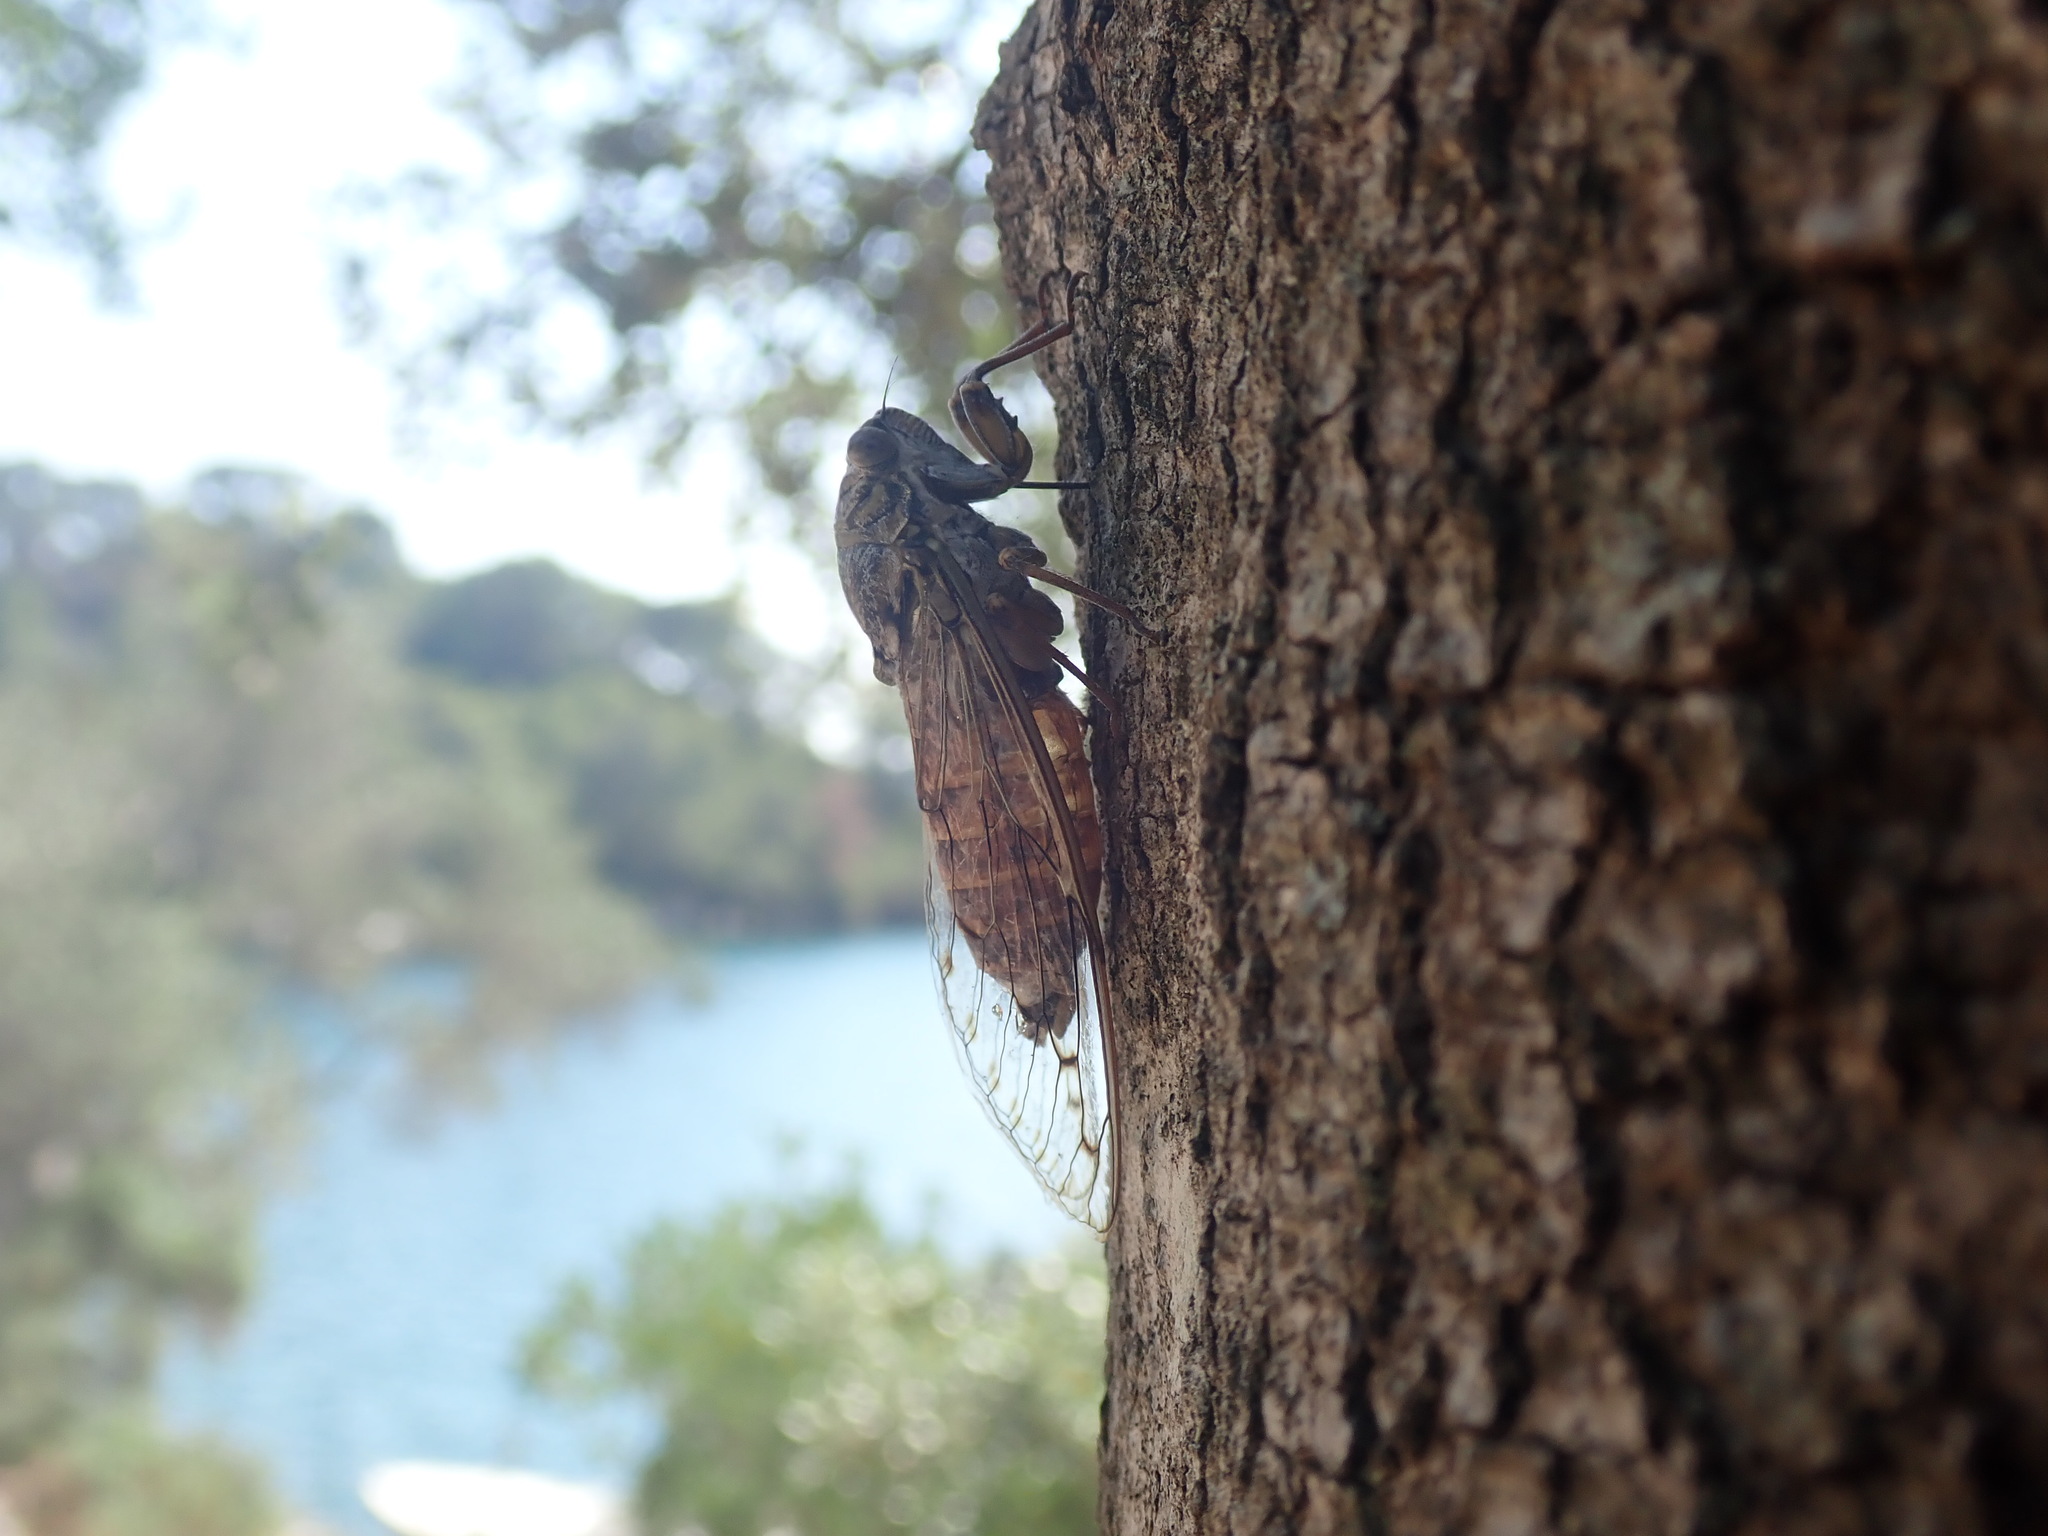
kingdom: Animalia
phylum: Arthropoda
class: Insecta
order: Hemiptera
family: Cicadidae
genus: Cicada
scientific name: Cicada orni
